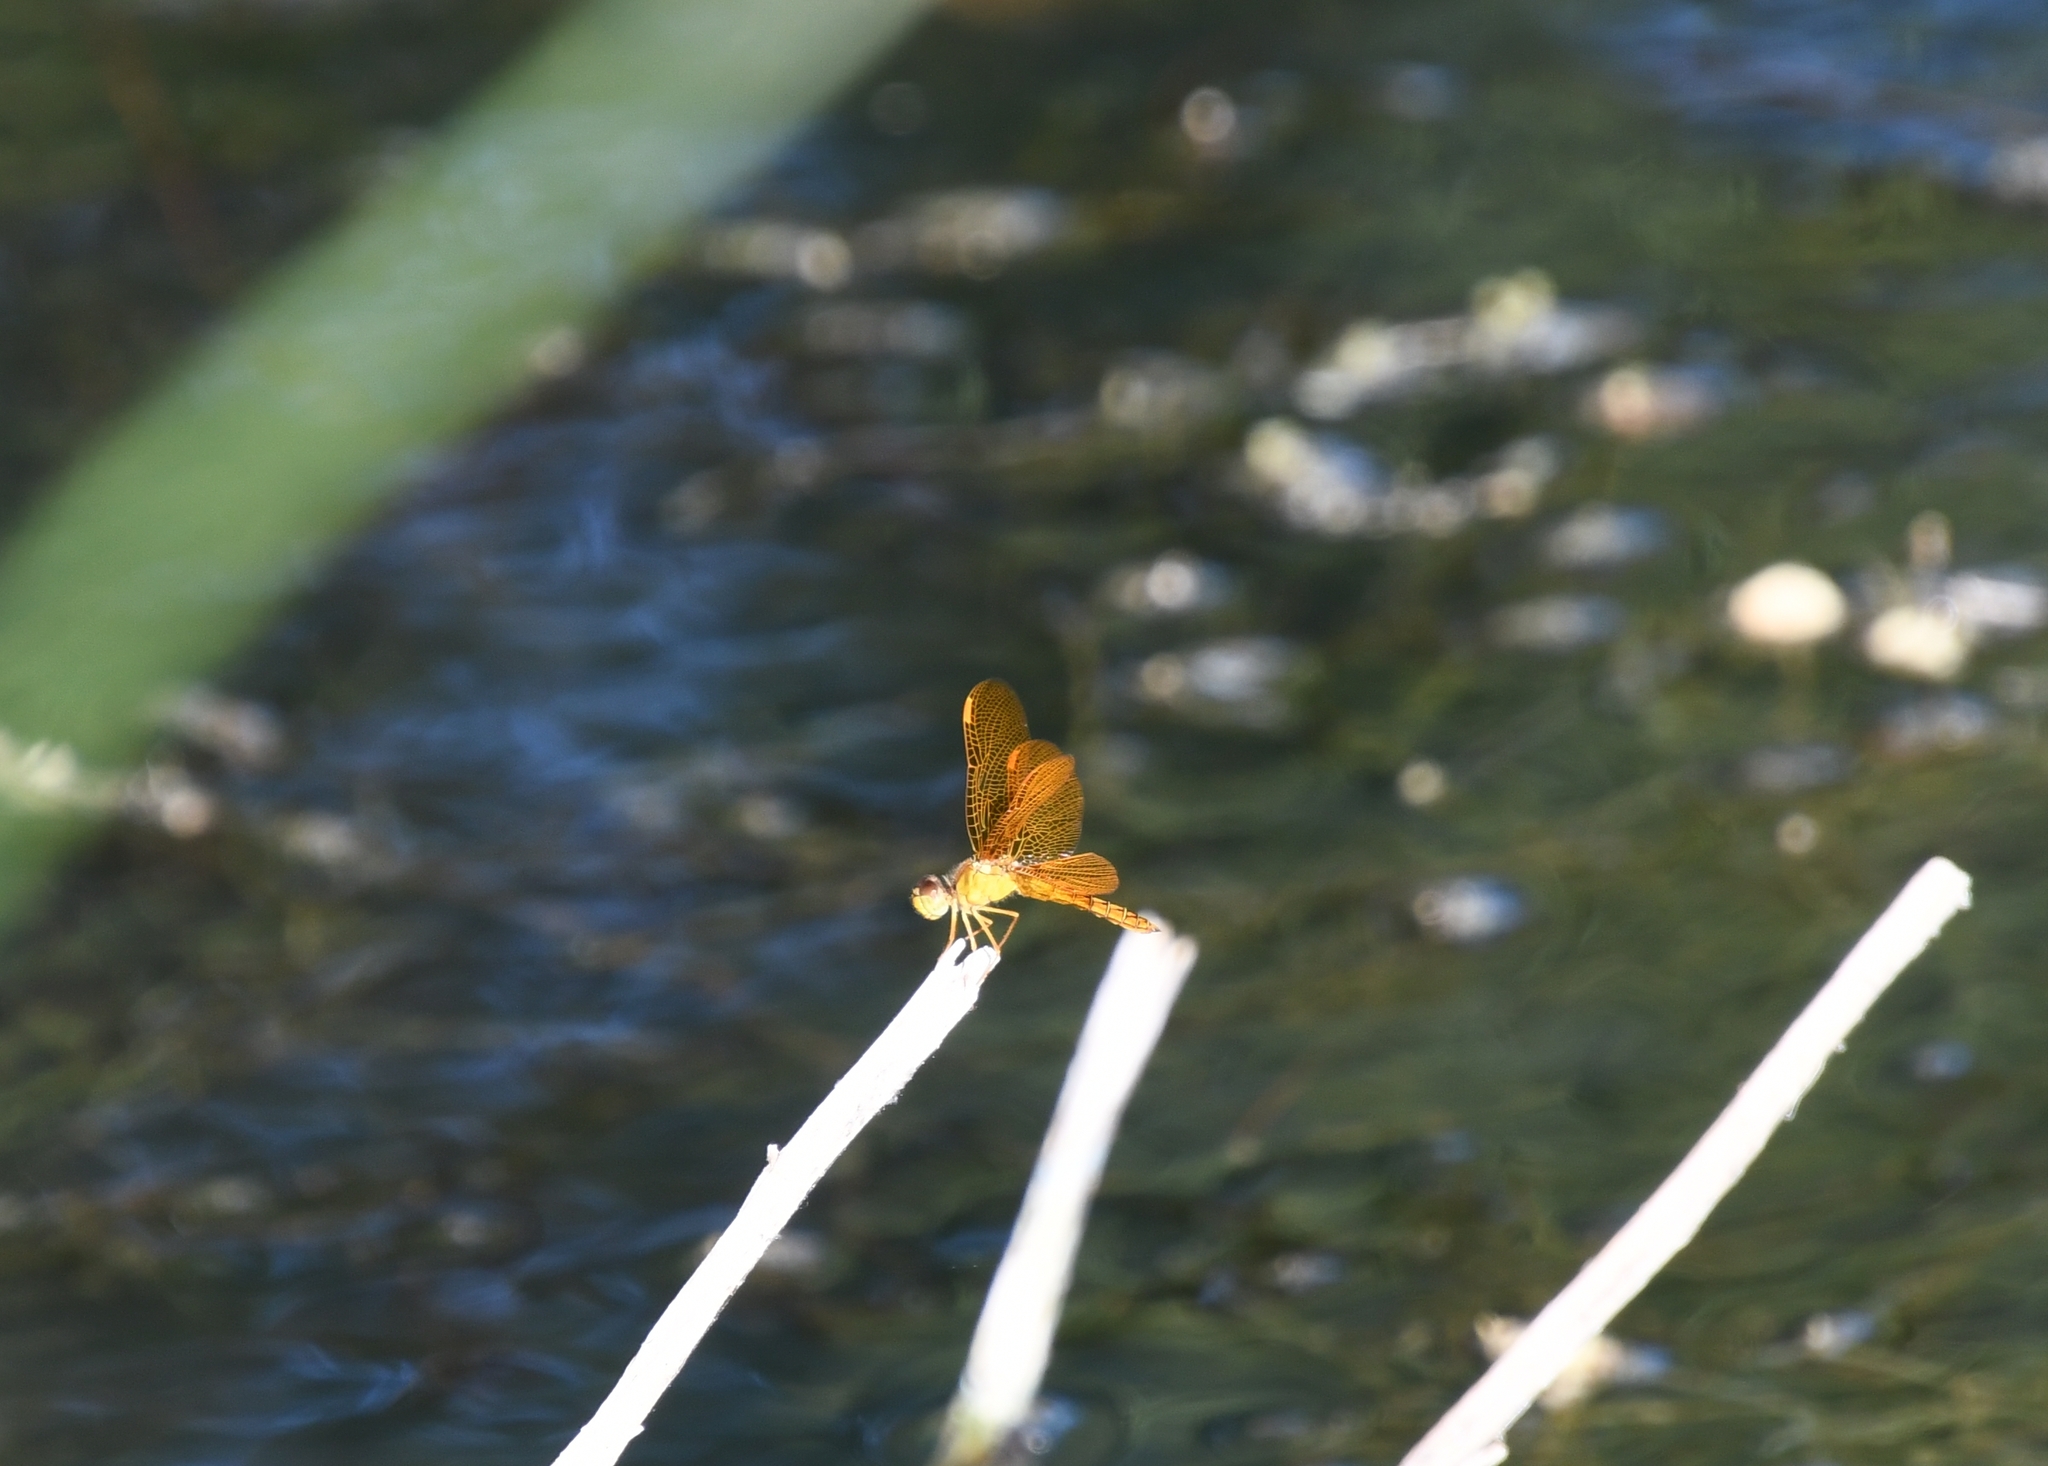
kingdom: Animalia
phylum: Arthropoda
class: Insecta
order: Odonata
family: Libellulidae
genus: Perithemis
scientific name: Perithemis intensa
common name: Mexican amberwing
